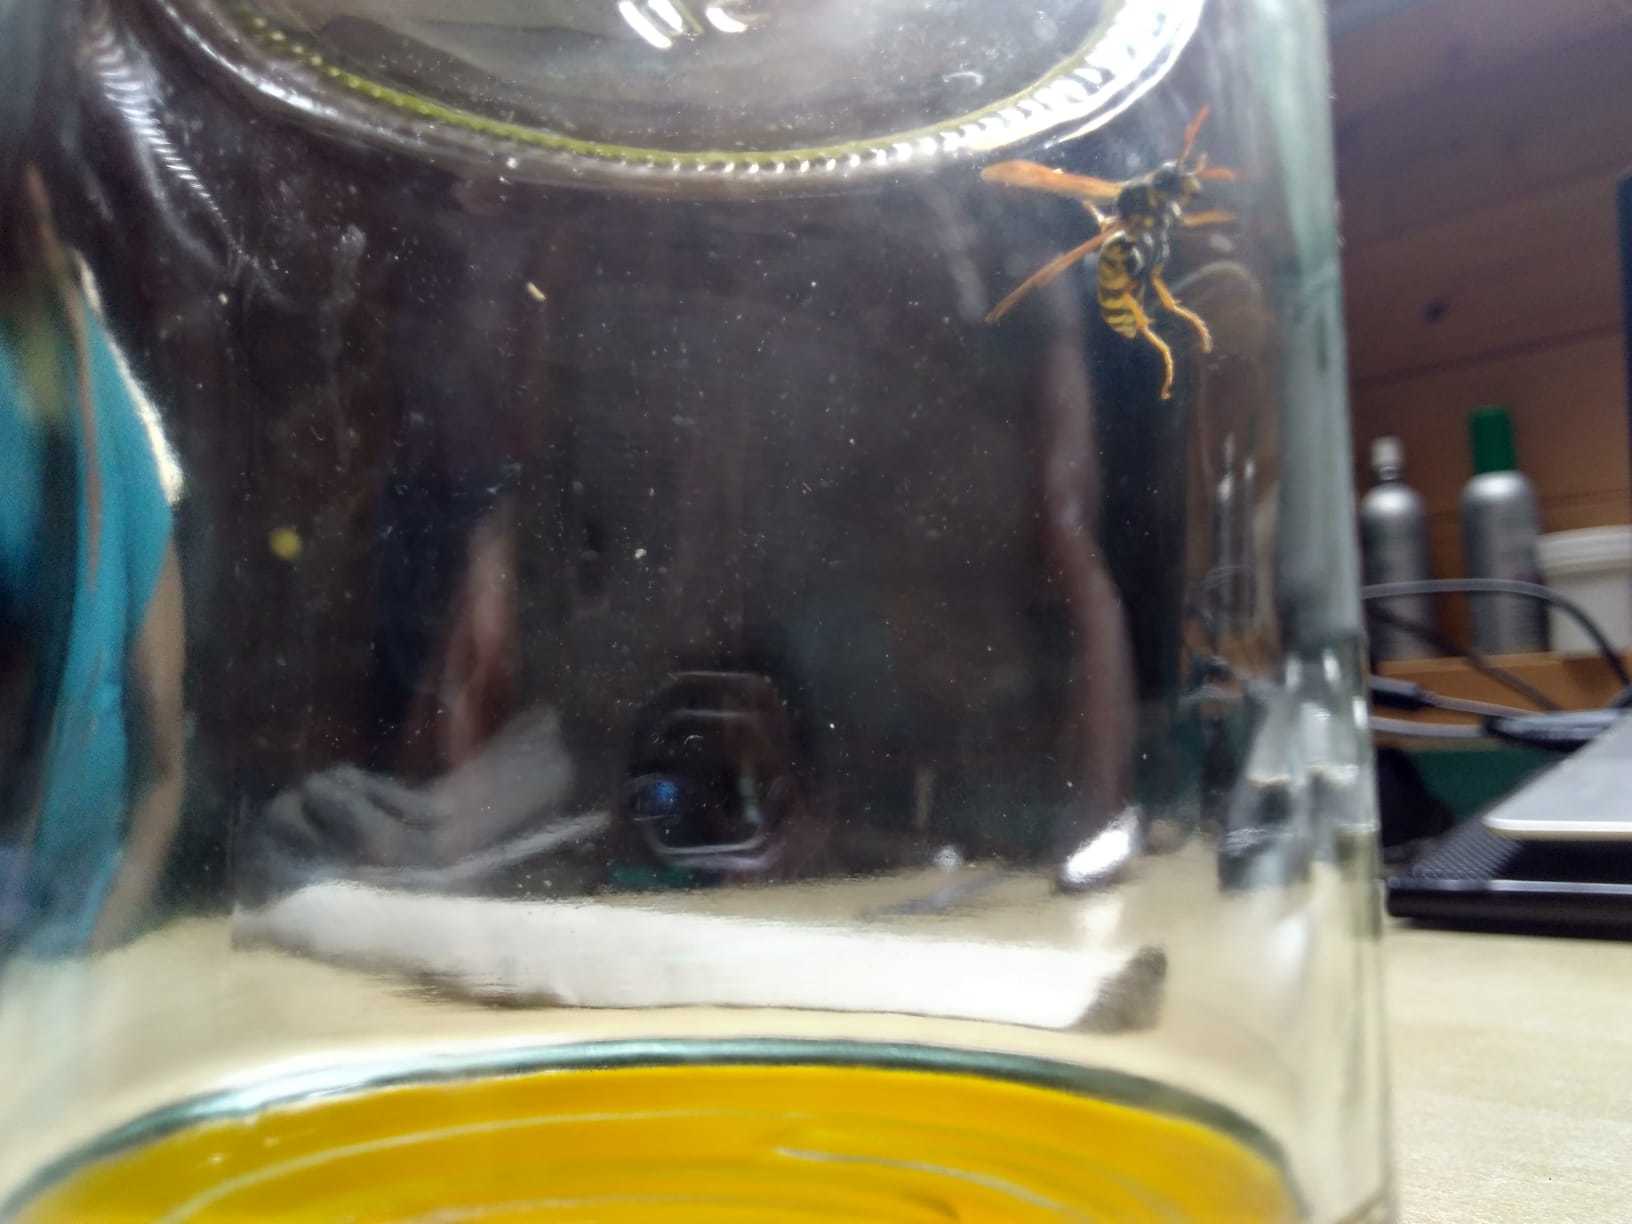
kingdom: Animalia
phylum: Arthropoda
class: Insecta
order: Hymenoptera
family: Eumenidae
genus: Polistes
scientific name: Polistes dominula
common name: Paper wasp
